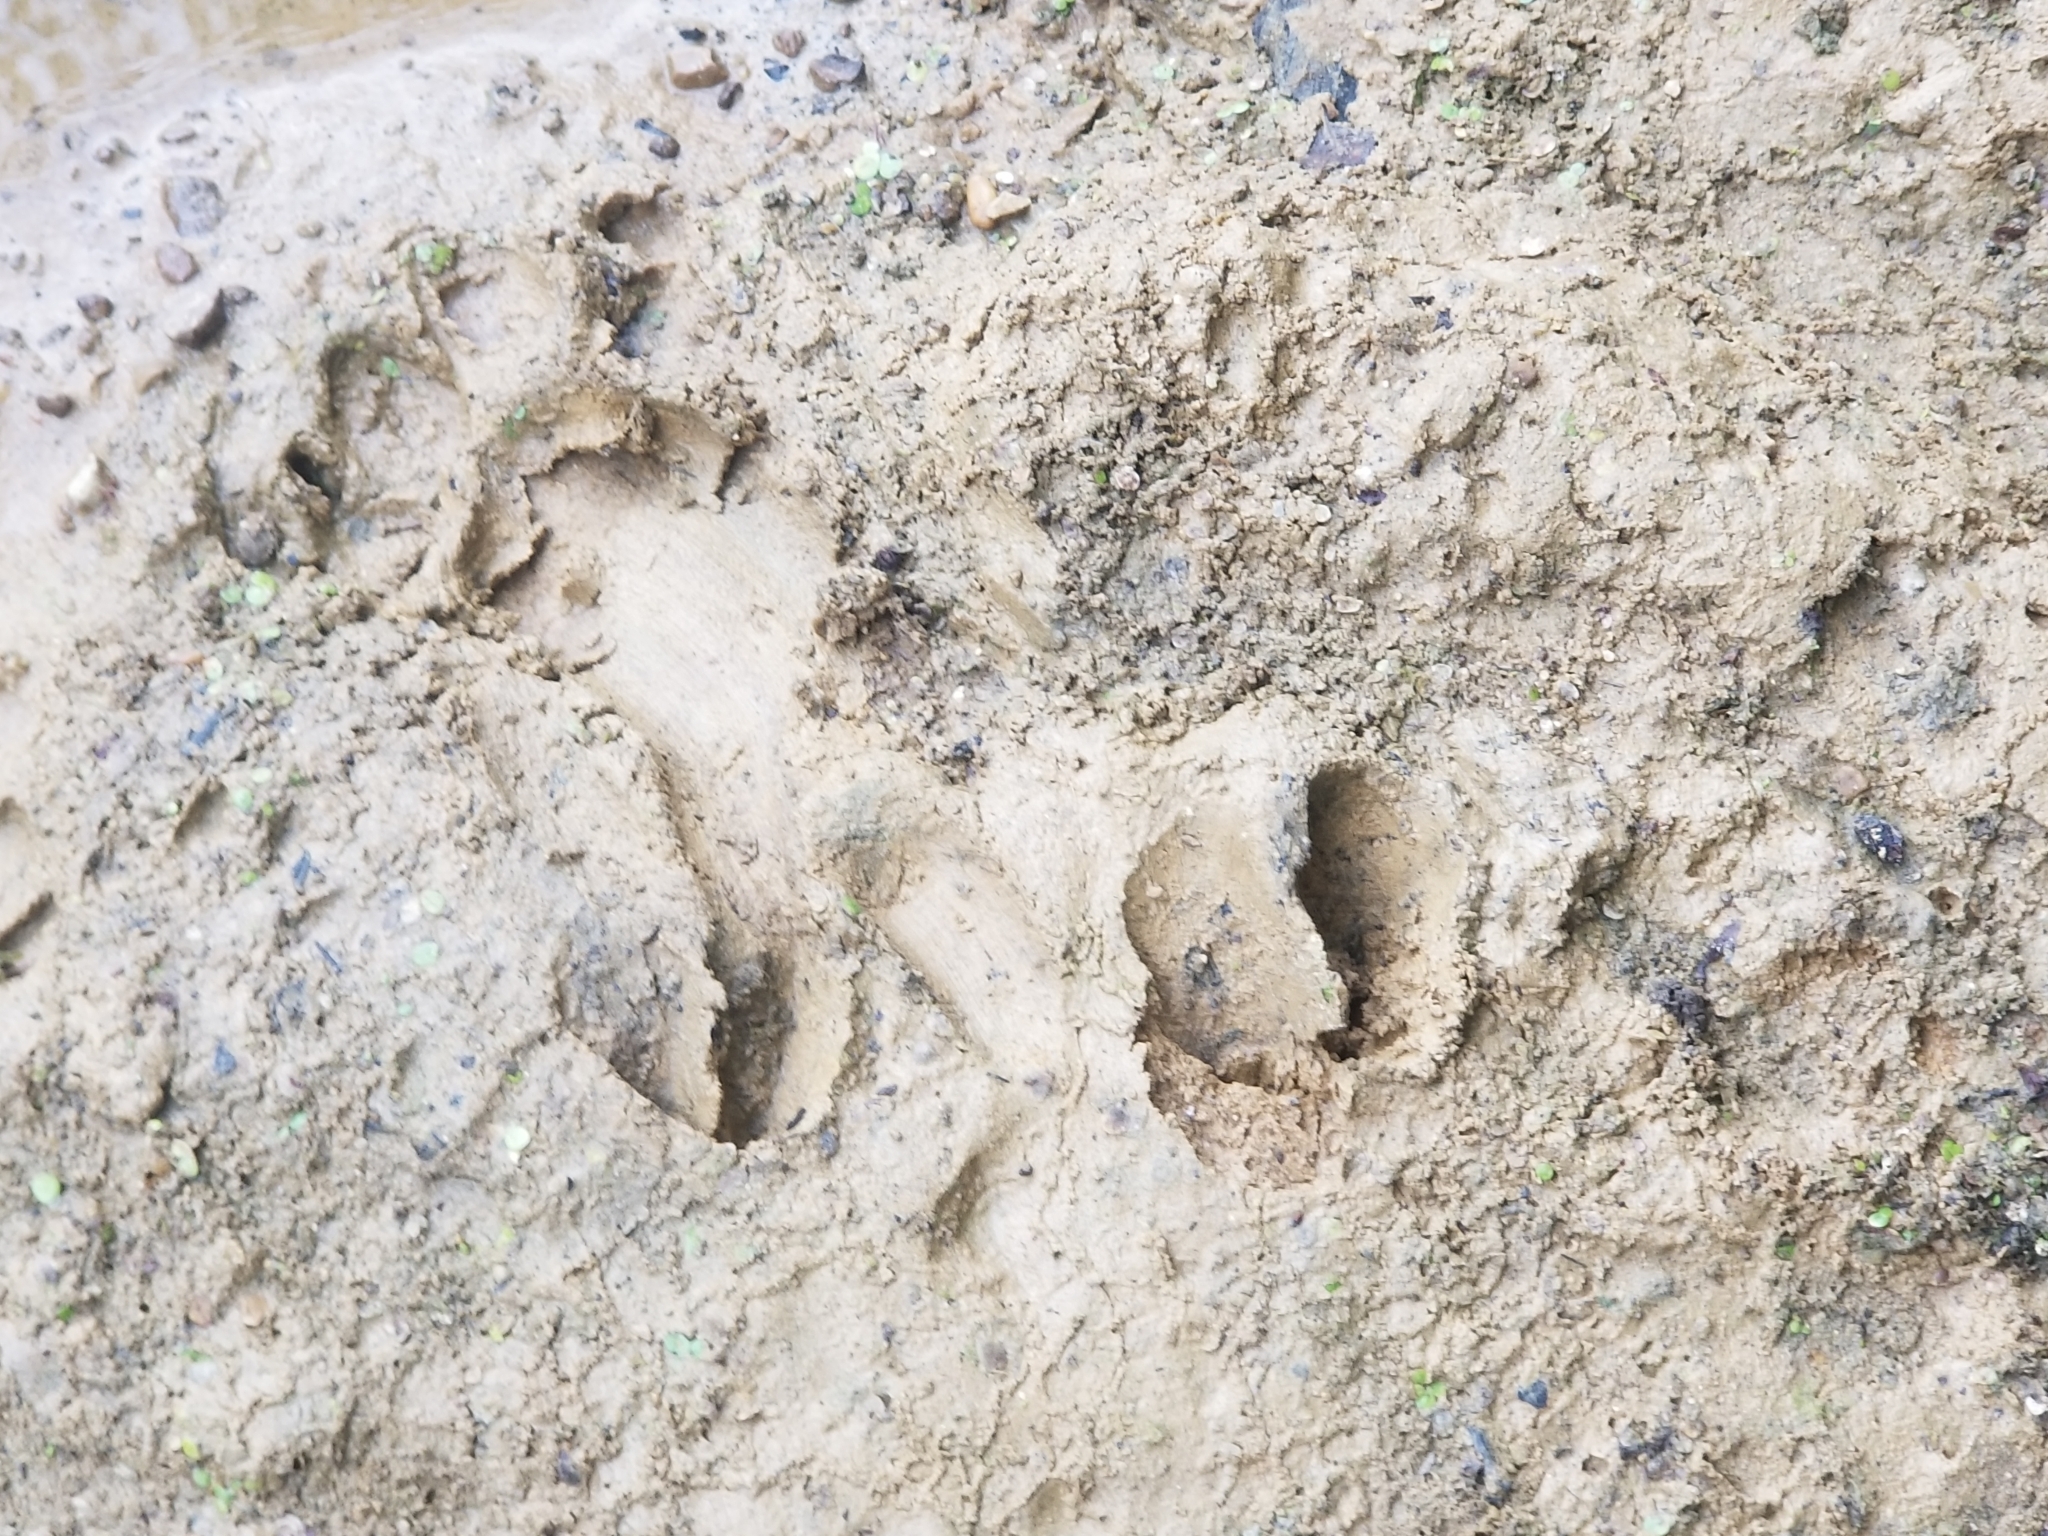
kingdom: Animalia
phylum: Chordata
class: Mammalia
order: Artiodactyla
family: Cervidae
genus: Odocoileus
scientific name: Odocoileus virginianus
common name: White-tailed deer
